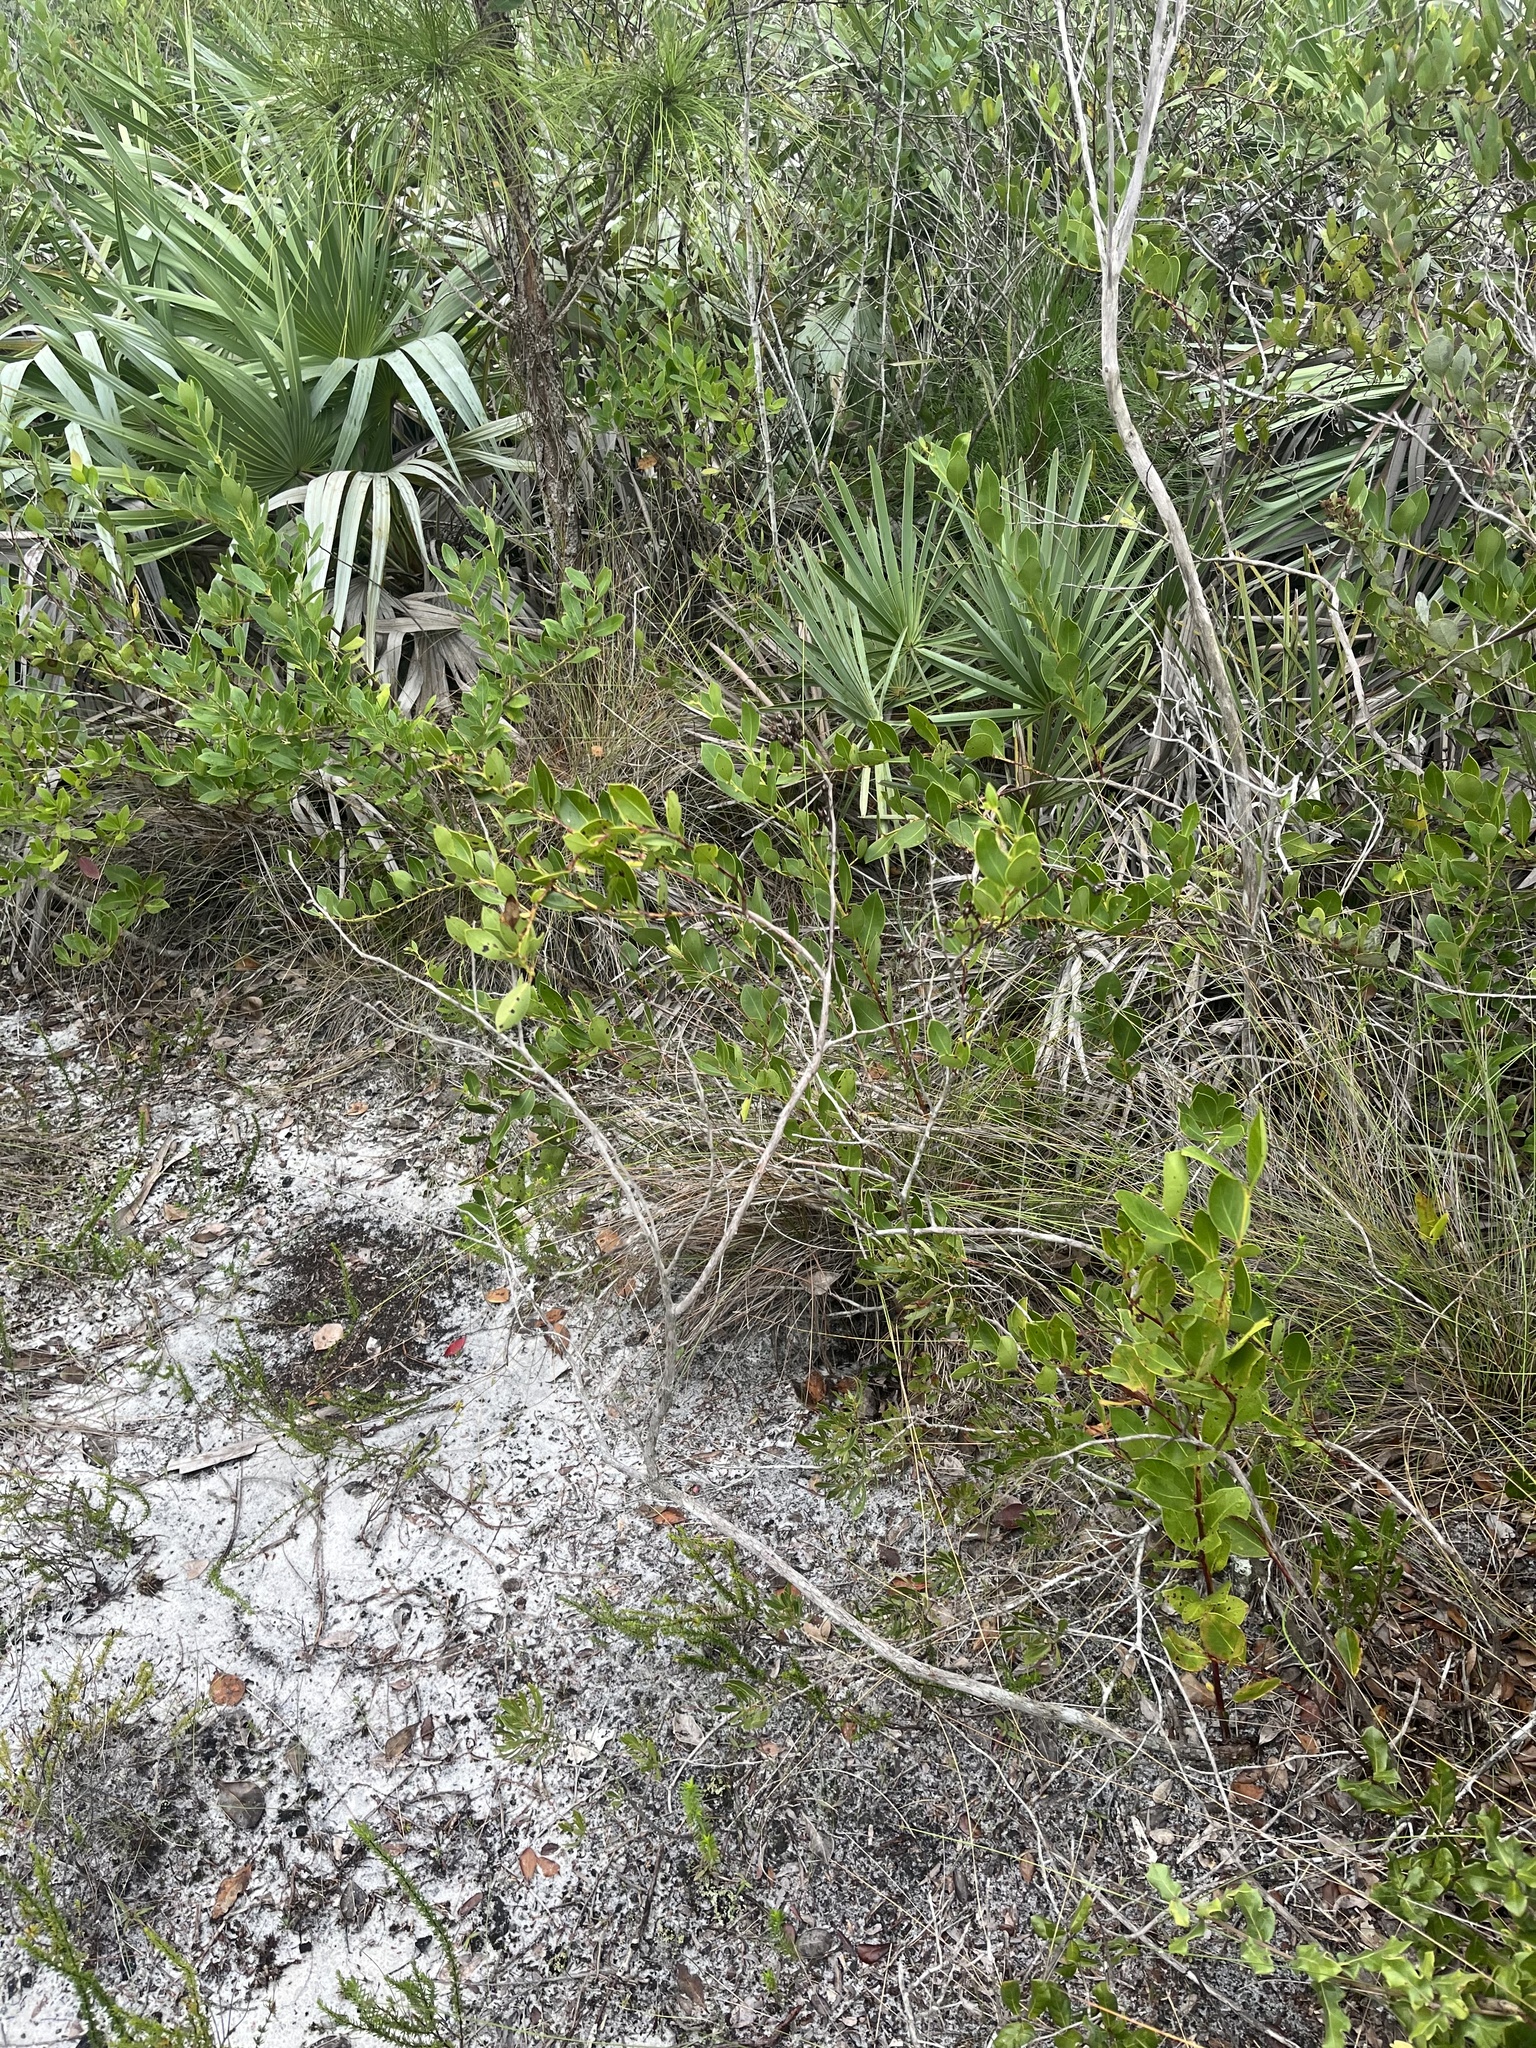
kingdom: Plantae
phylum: Tracheophyta
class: Magnoliopsida
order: Fagales
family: Myricaceae
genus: Morella
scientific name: Morella cerifera
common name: Wax myrtle
